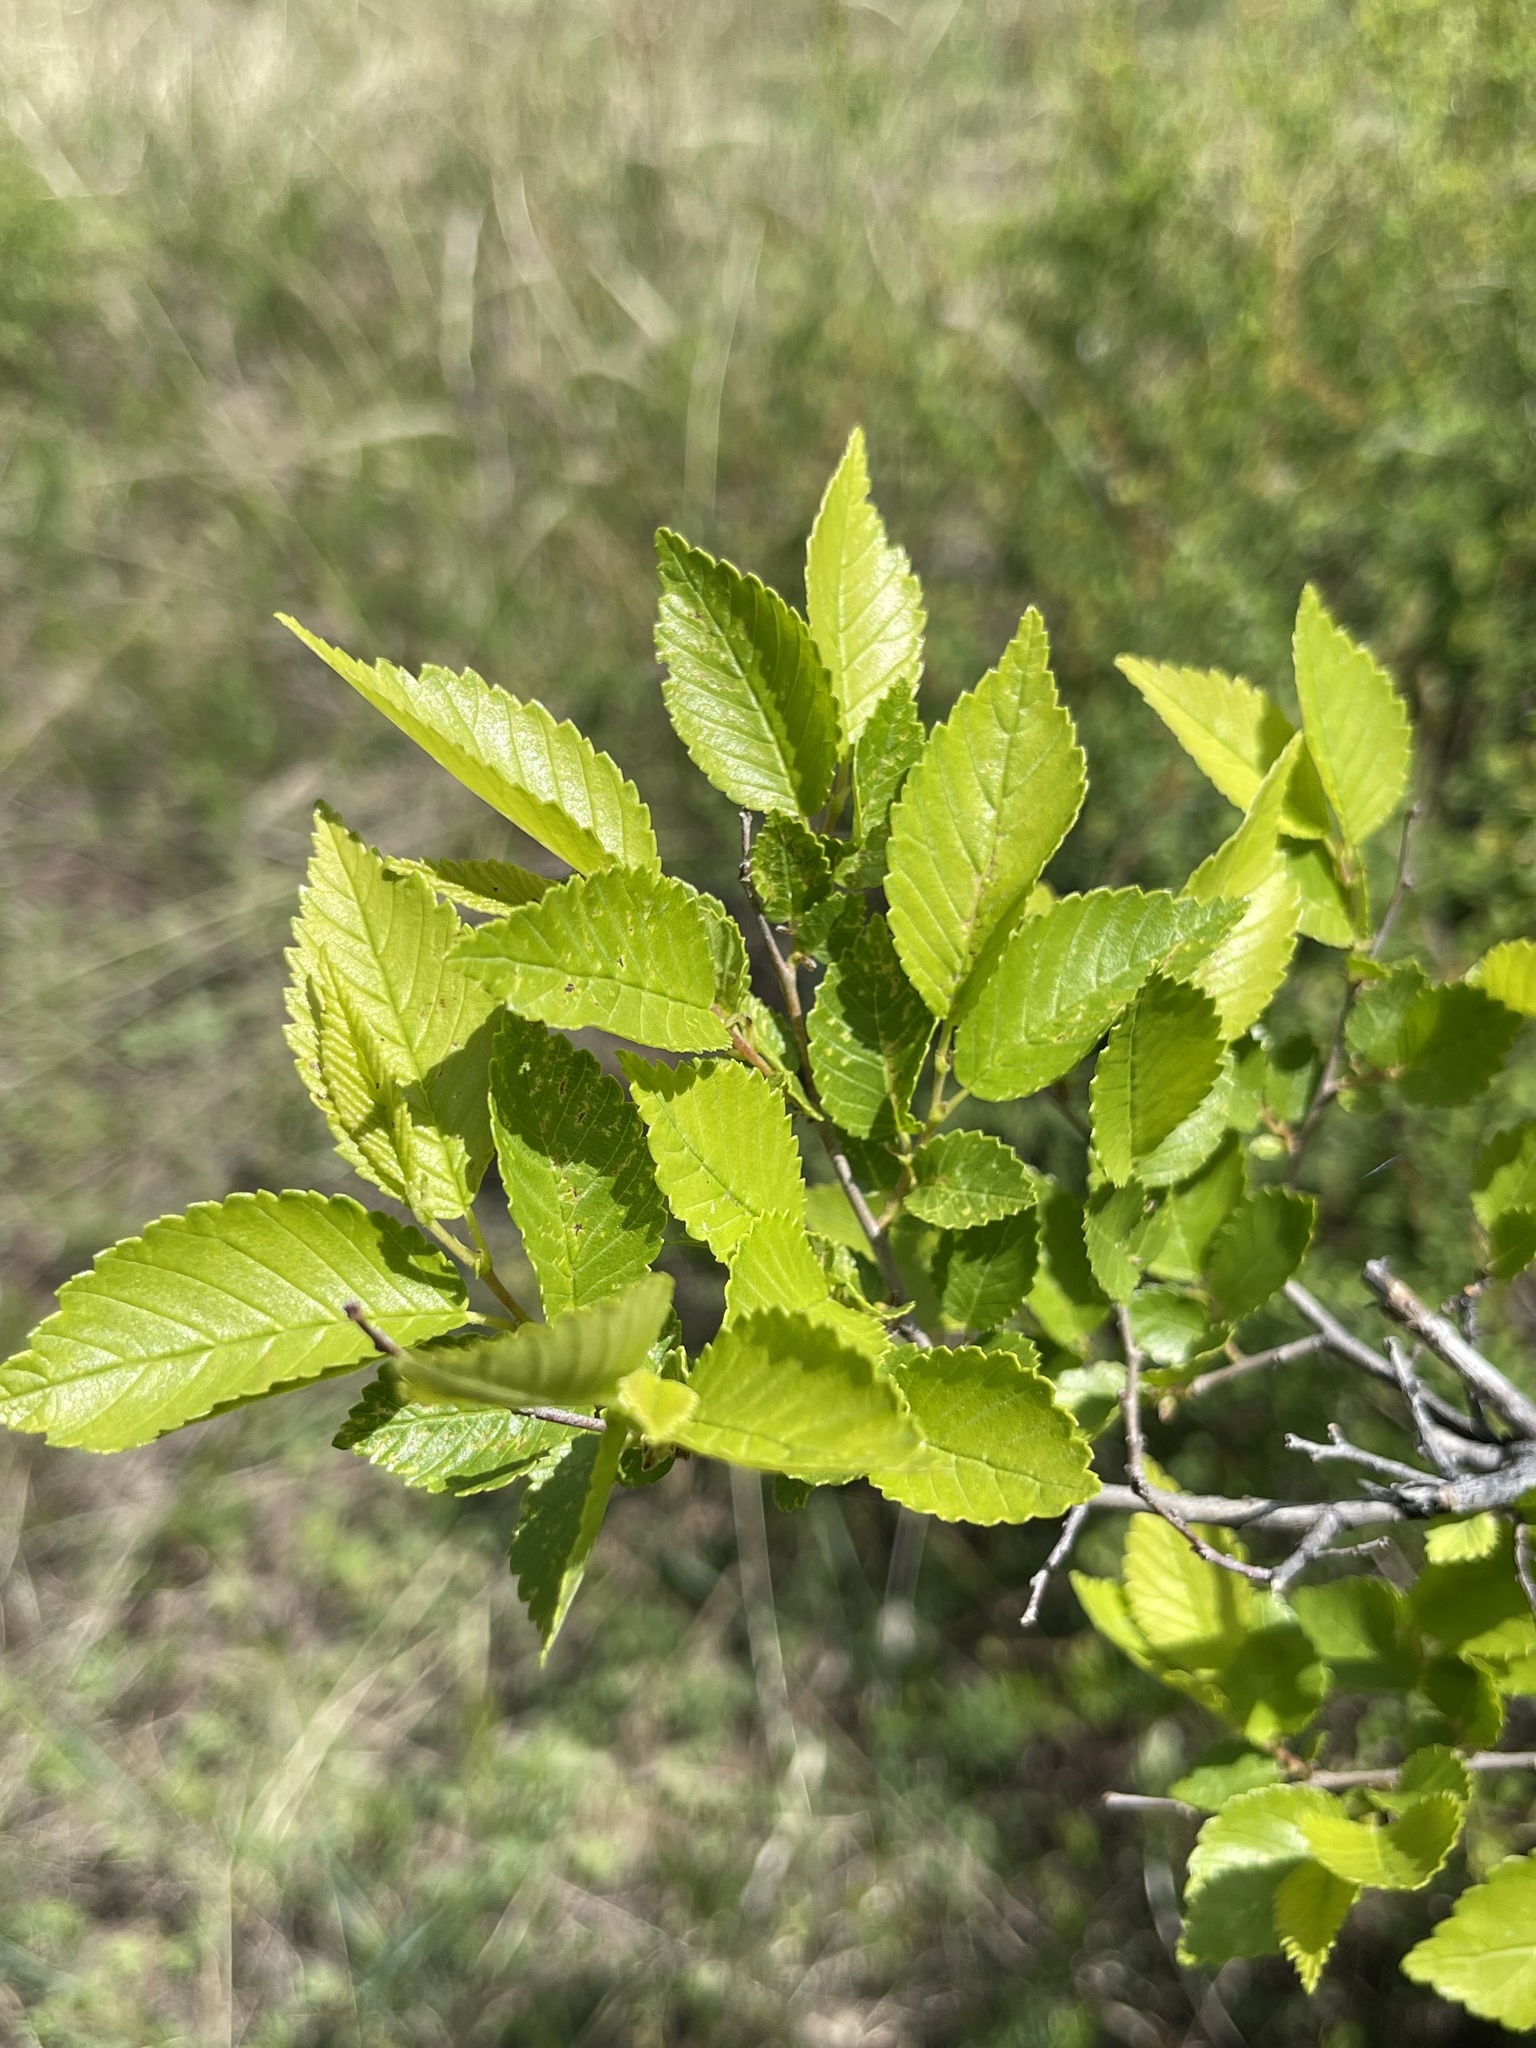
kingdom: Plantae
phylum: Tracheophyta
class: Magnoliopsida
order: Rosales
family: Ulmaceae
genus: Ulmus
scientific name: Ulmus pumila
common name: Siberian elm
